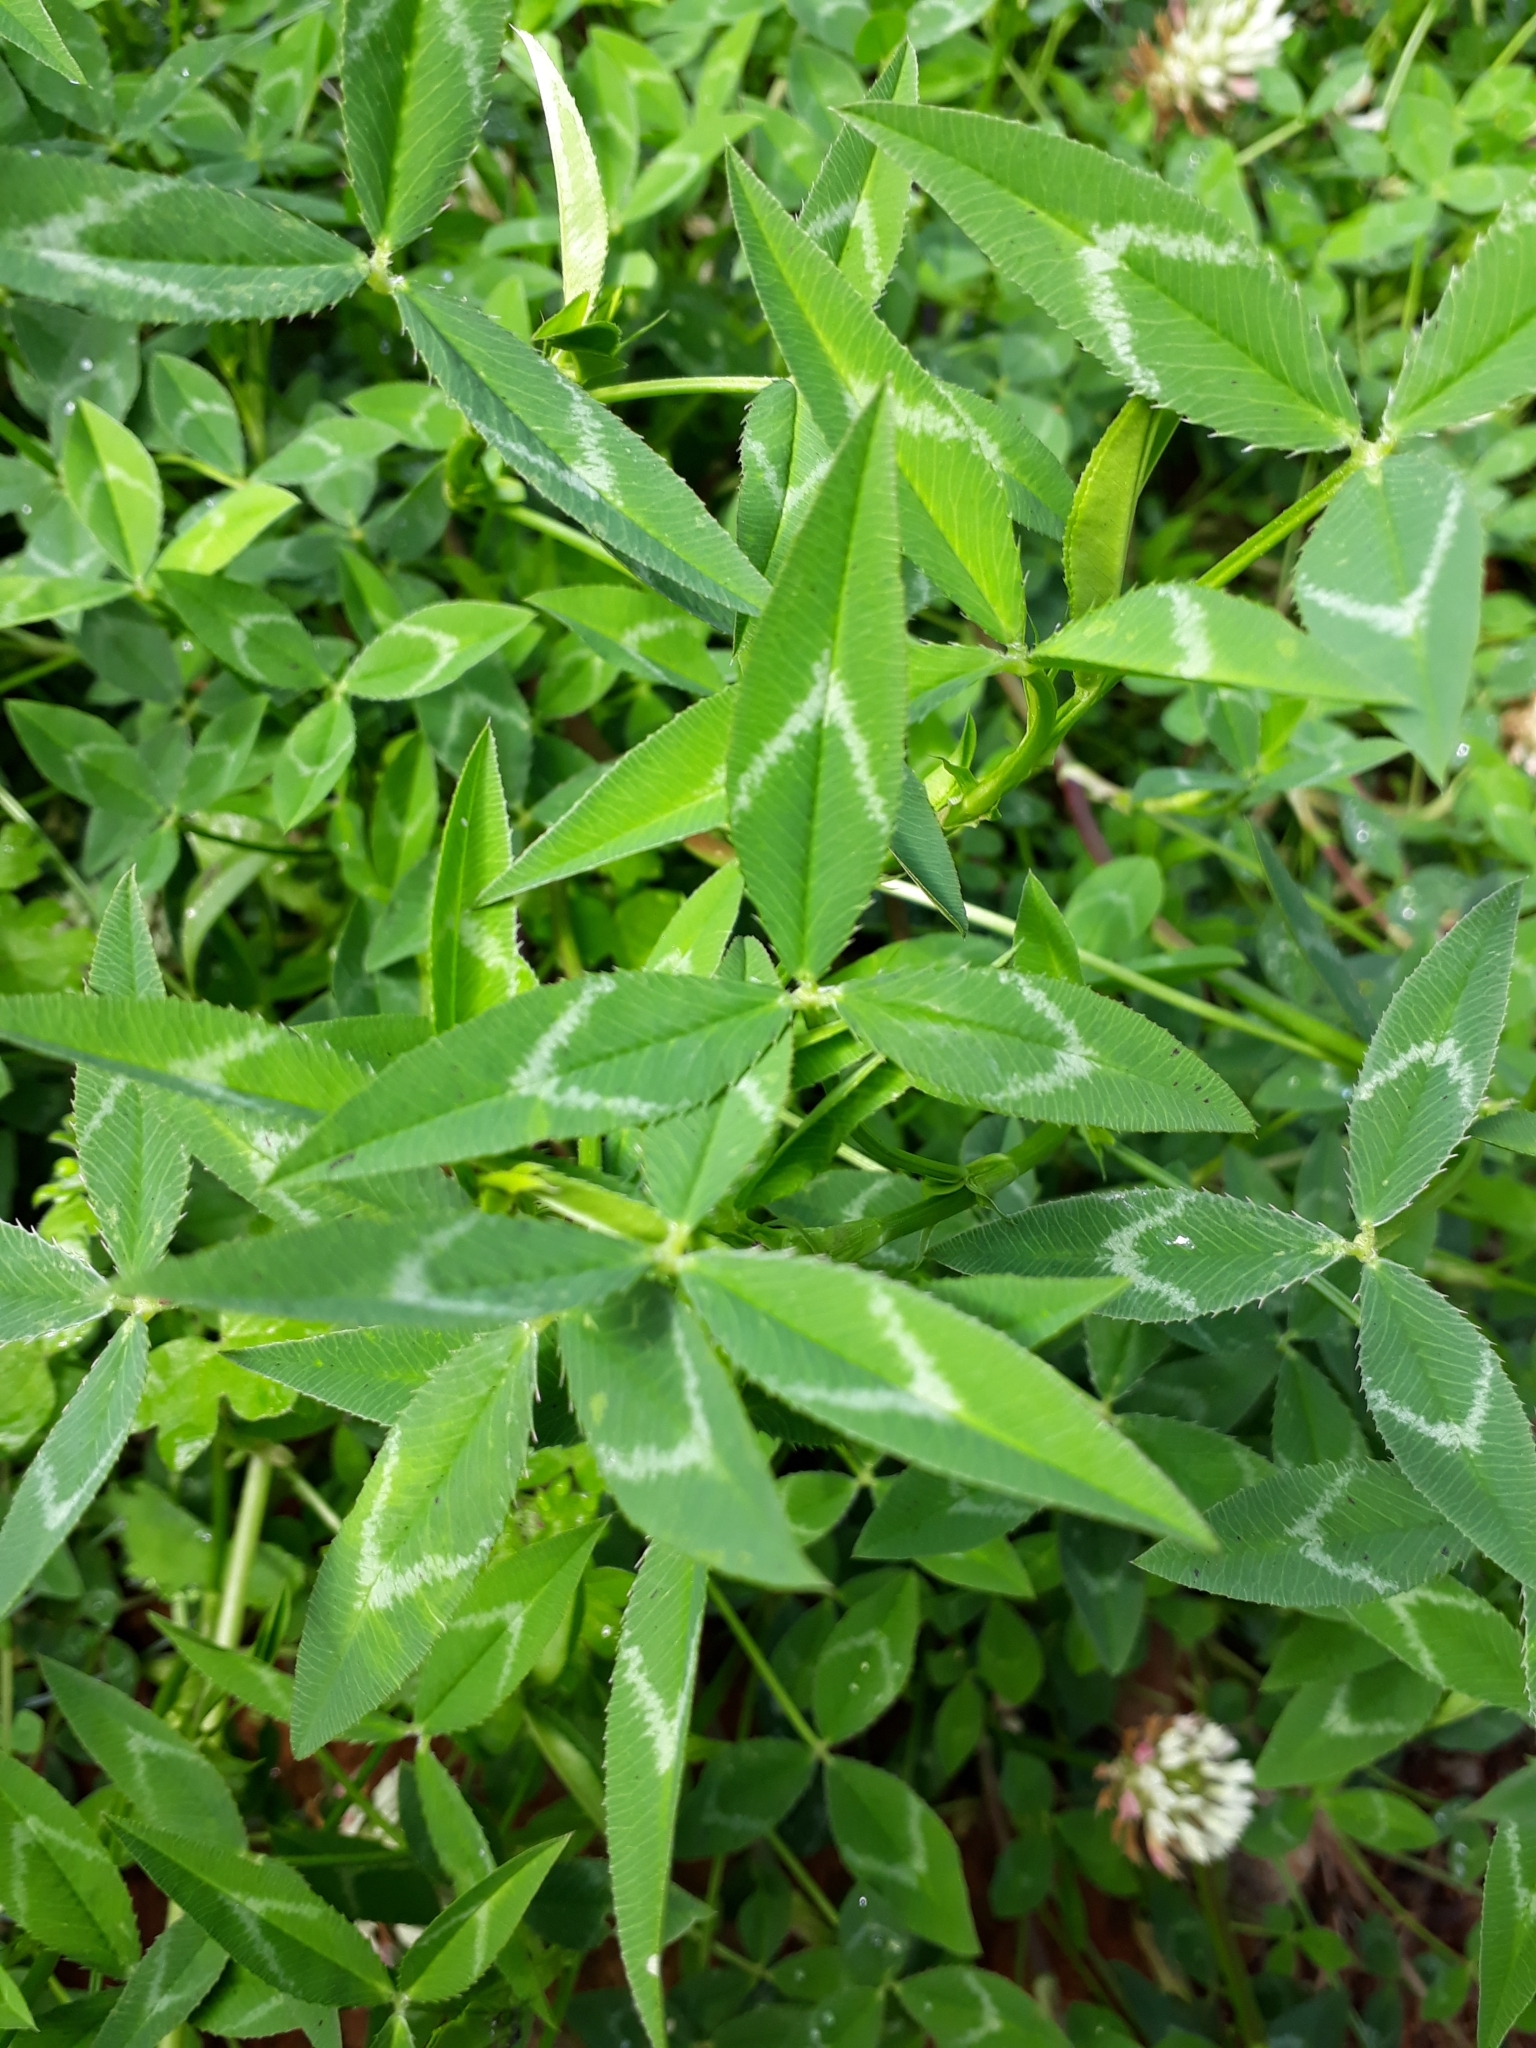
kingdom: Plantae
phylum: Tracheophyta
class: Magnoliopsida
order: Fabales
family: Fabaceae
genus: Trifolium
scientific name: Trifolium vesiculosum
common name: Arrowleaf clover
